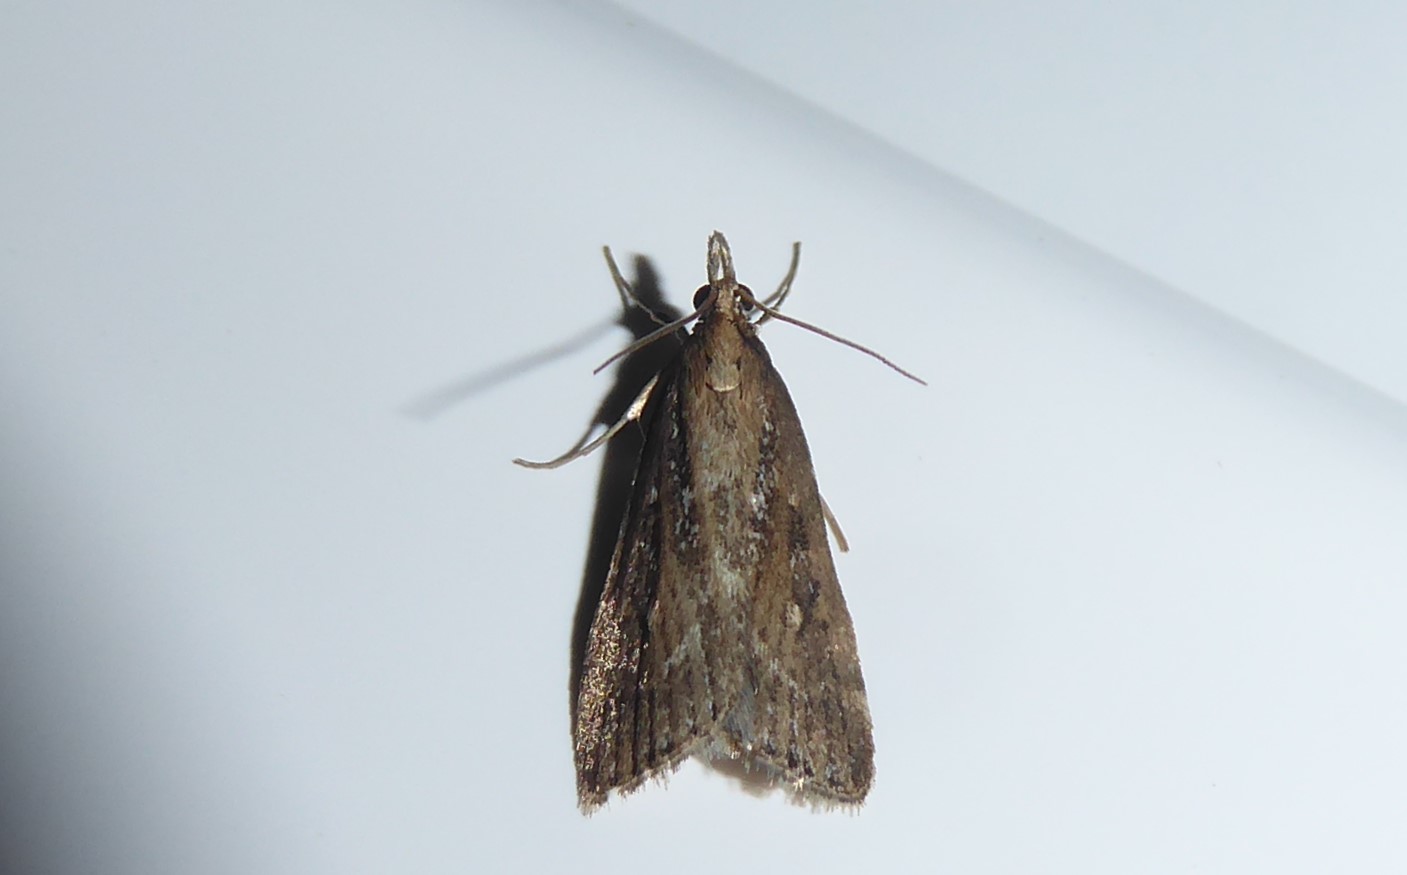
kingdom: Animalia
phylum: Arthropoda
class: Insecta
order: Lepidoptera
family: Crambidae
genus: Eudonia
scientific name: Eudonia octophora
